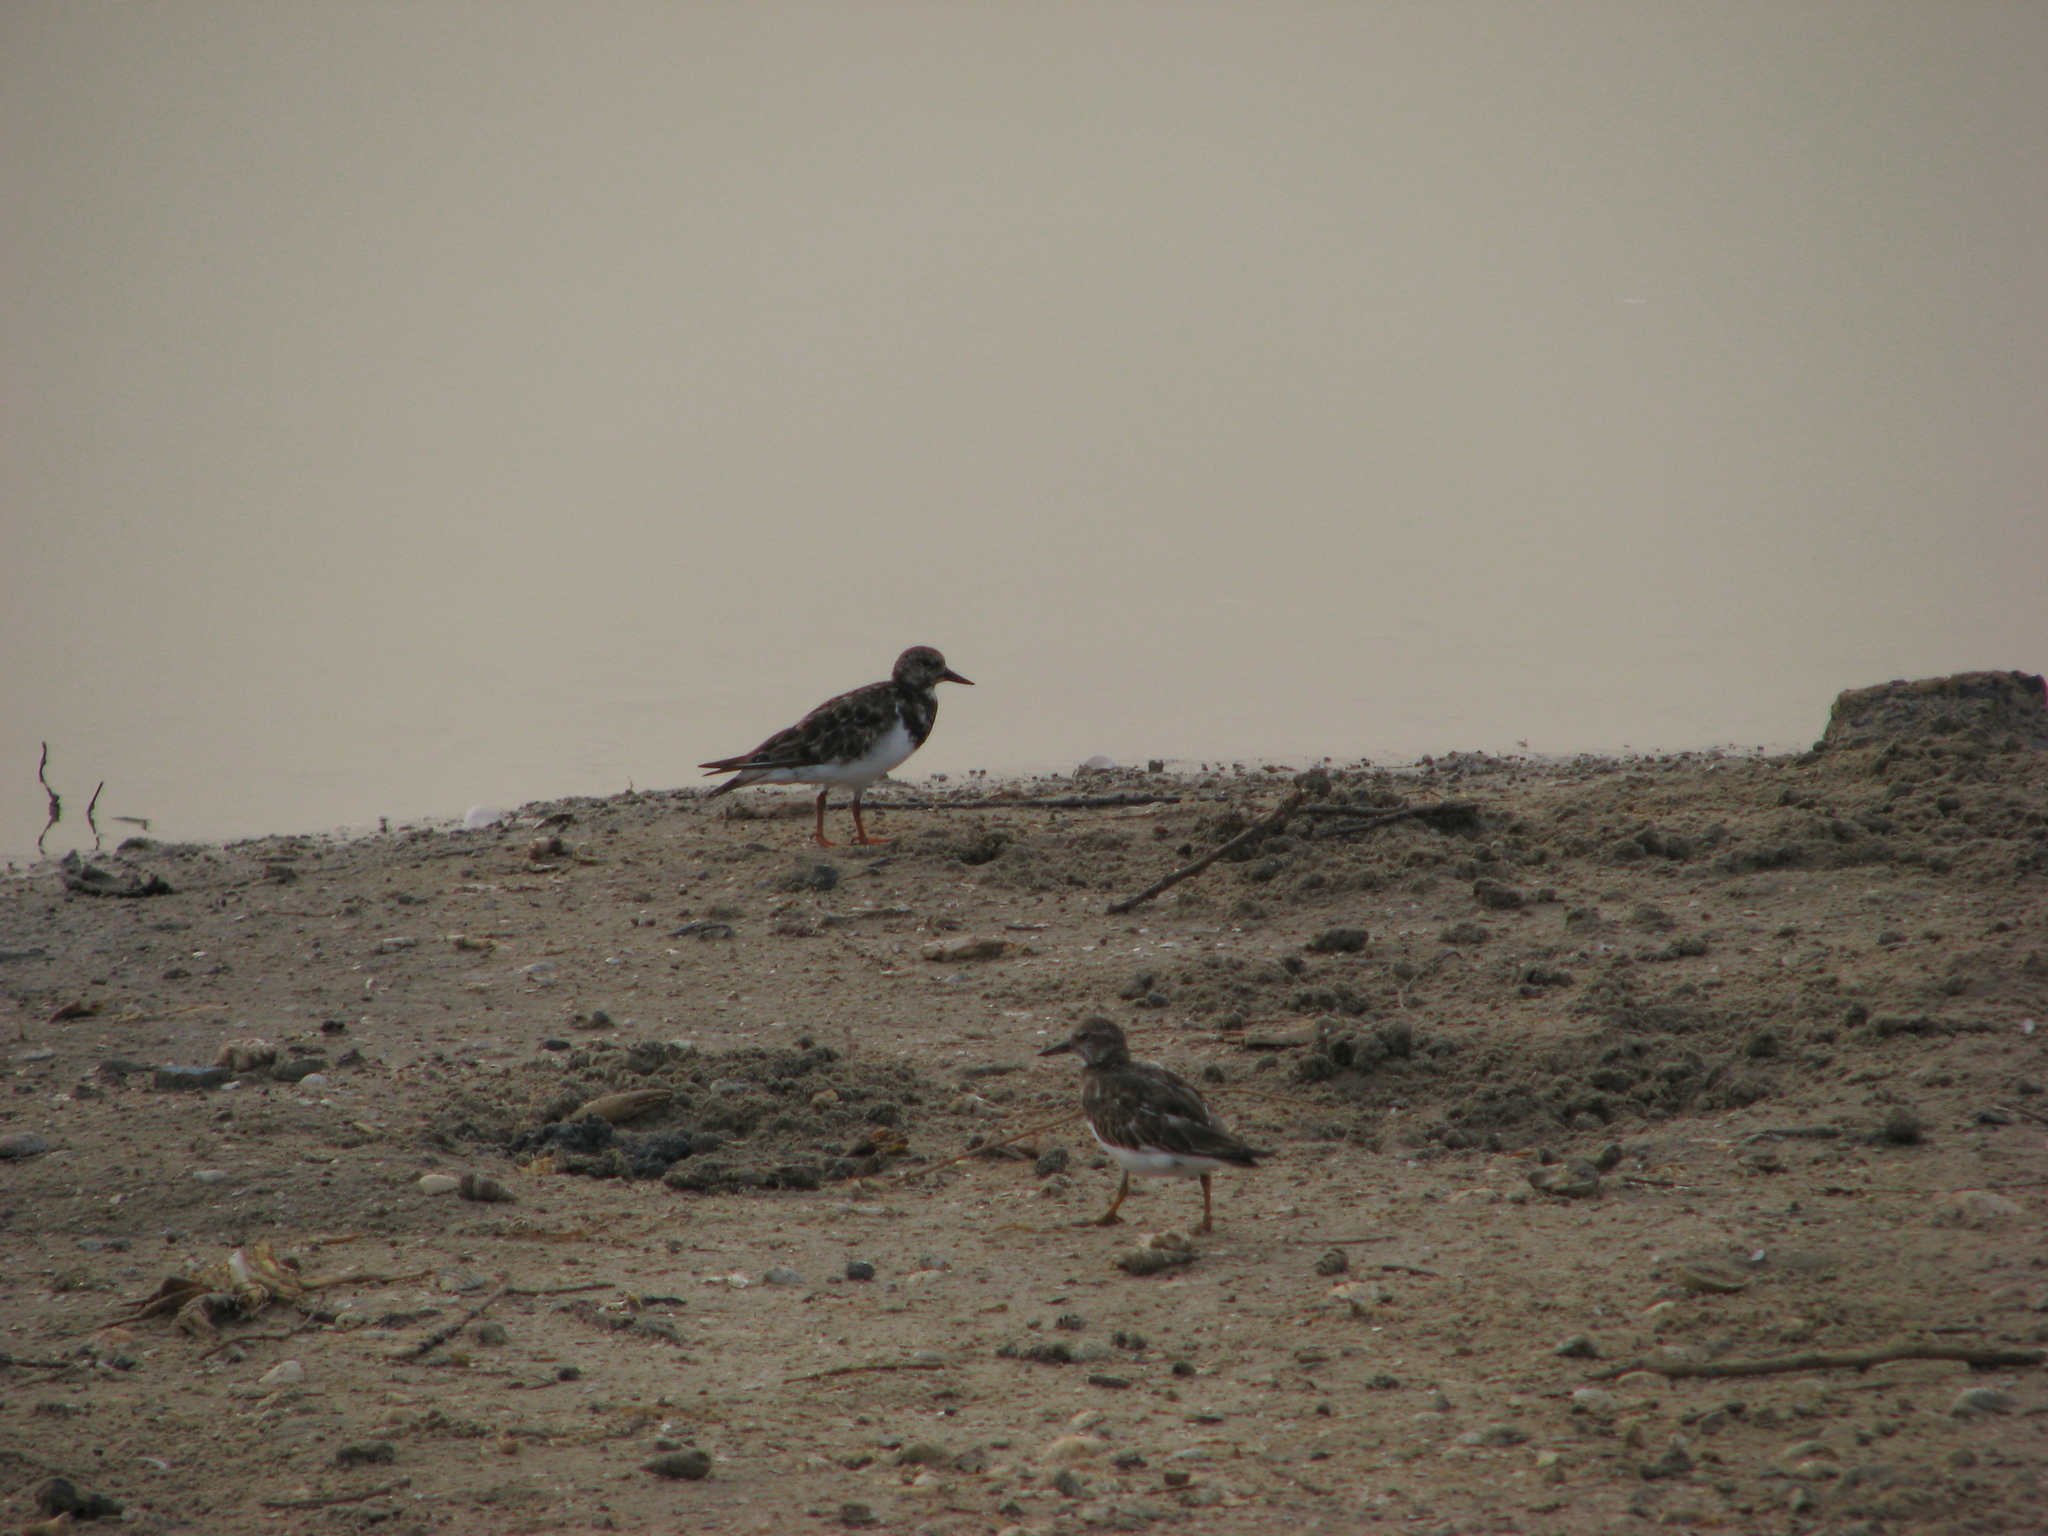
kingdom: Animalia
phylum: Chordata
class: Aves
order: Charadriiformes
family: Scolopacidae
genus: Arenaria
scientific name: Arenaria interpres
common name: Ruddy turnstone
